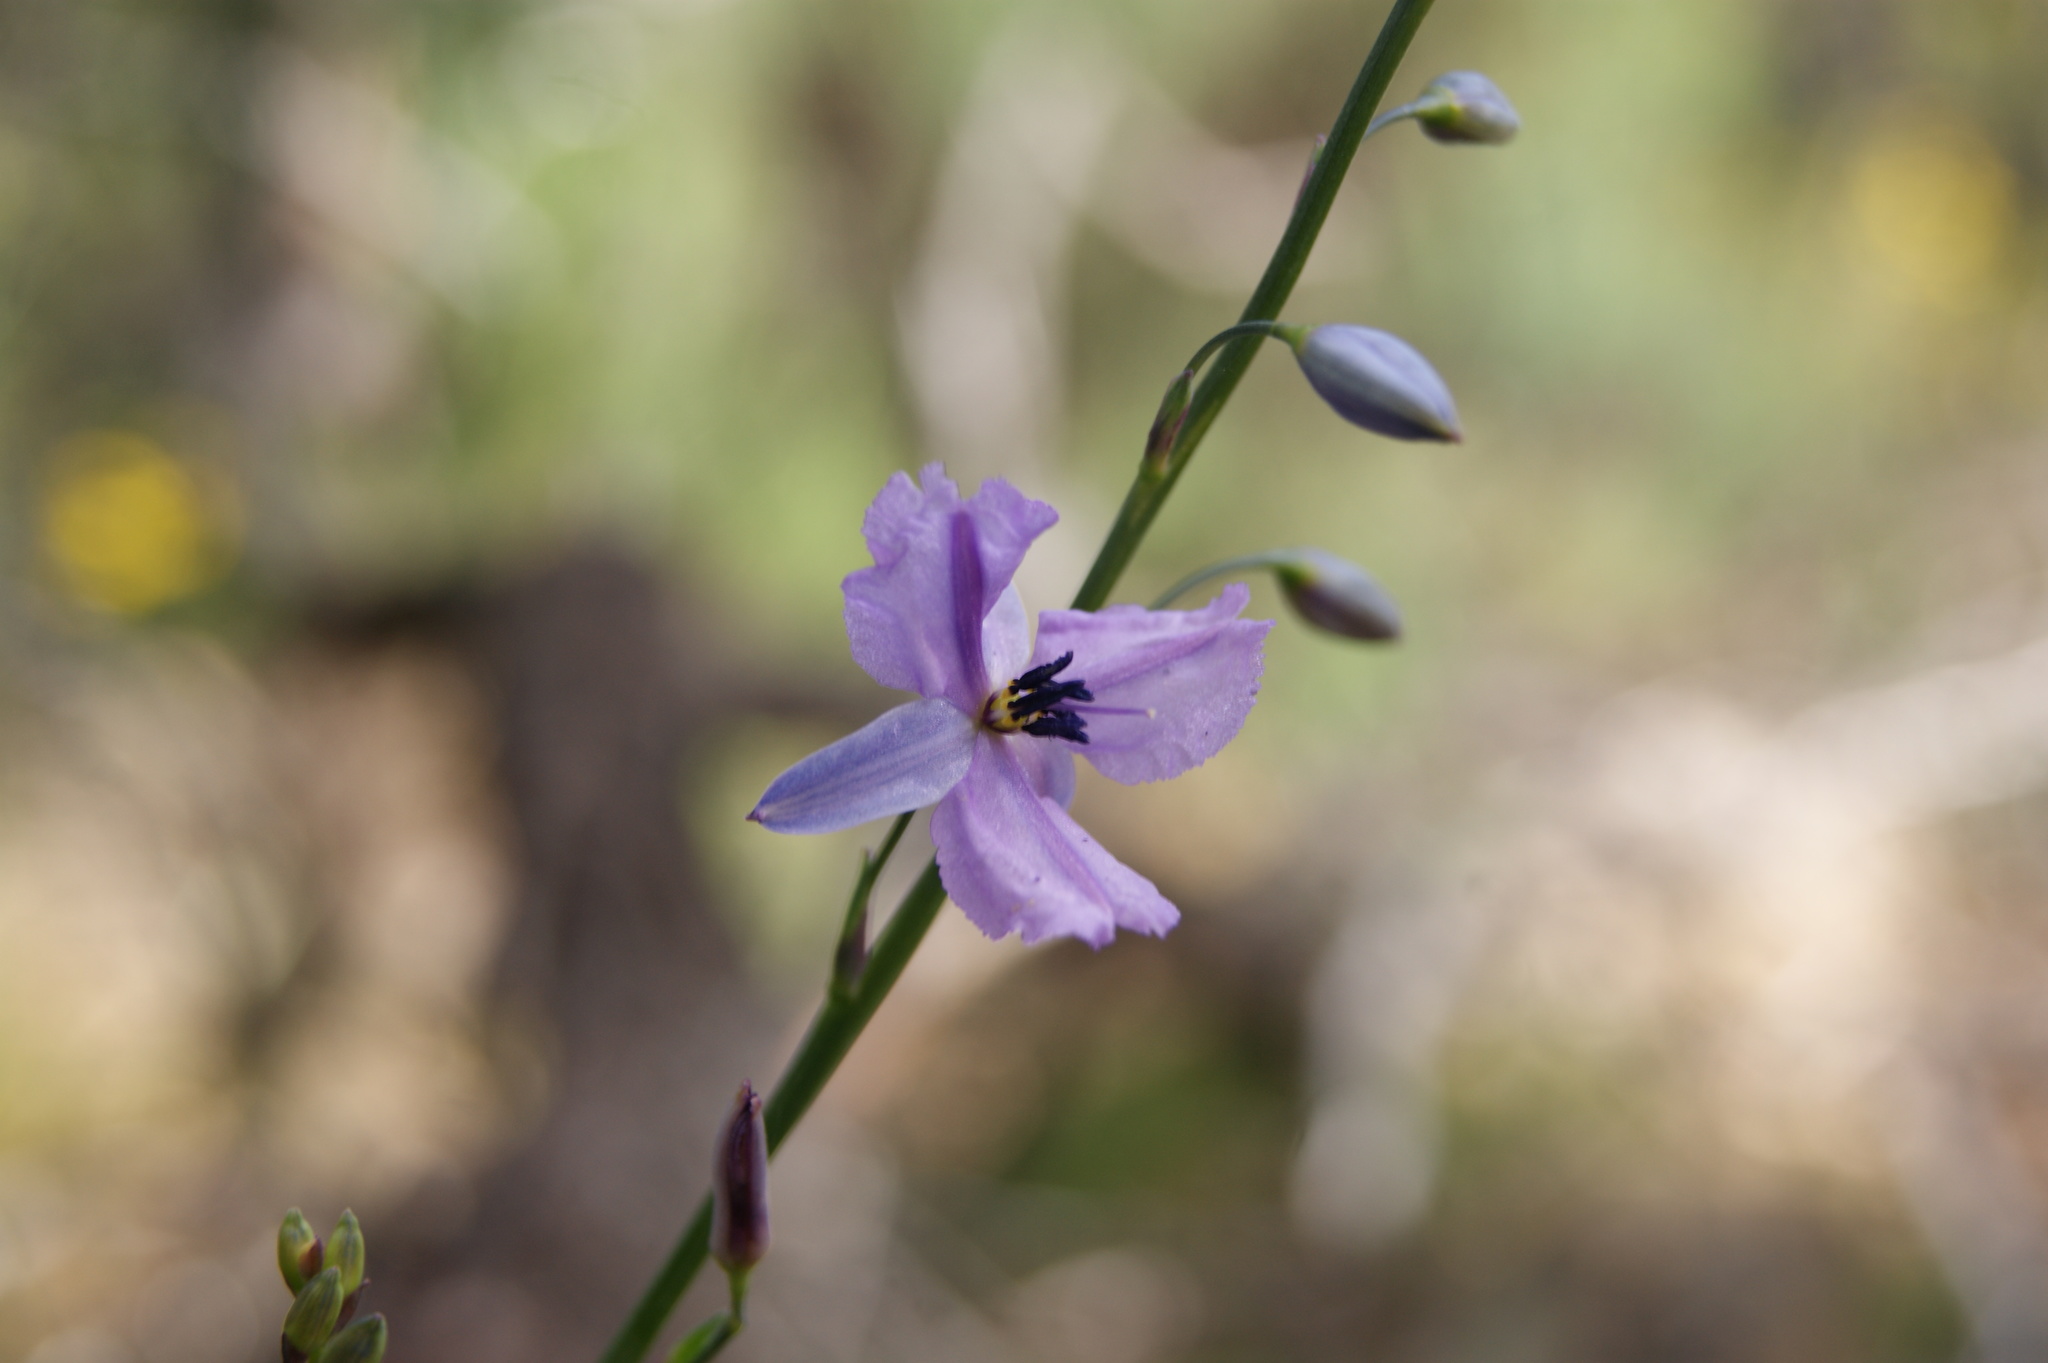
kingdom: Plantae
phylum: Tracheophyta
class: Liliopsida
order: Asparagales
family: Asparagaceae
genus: Arthropodium
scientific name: Arthropodium strictum
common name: Chocolate-lily
